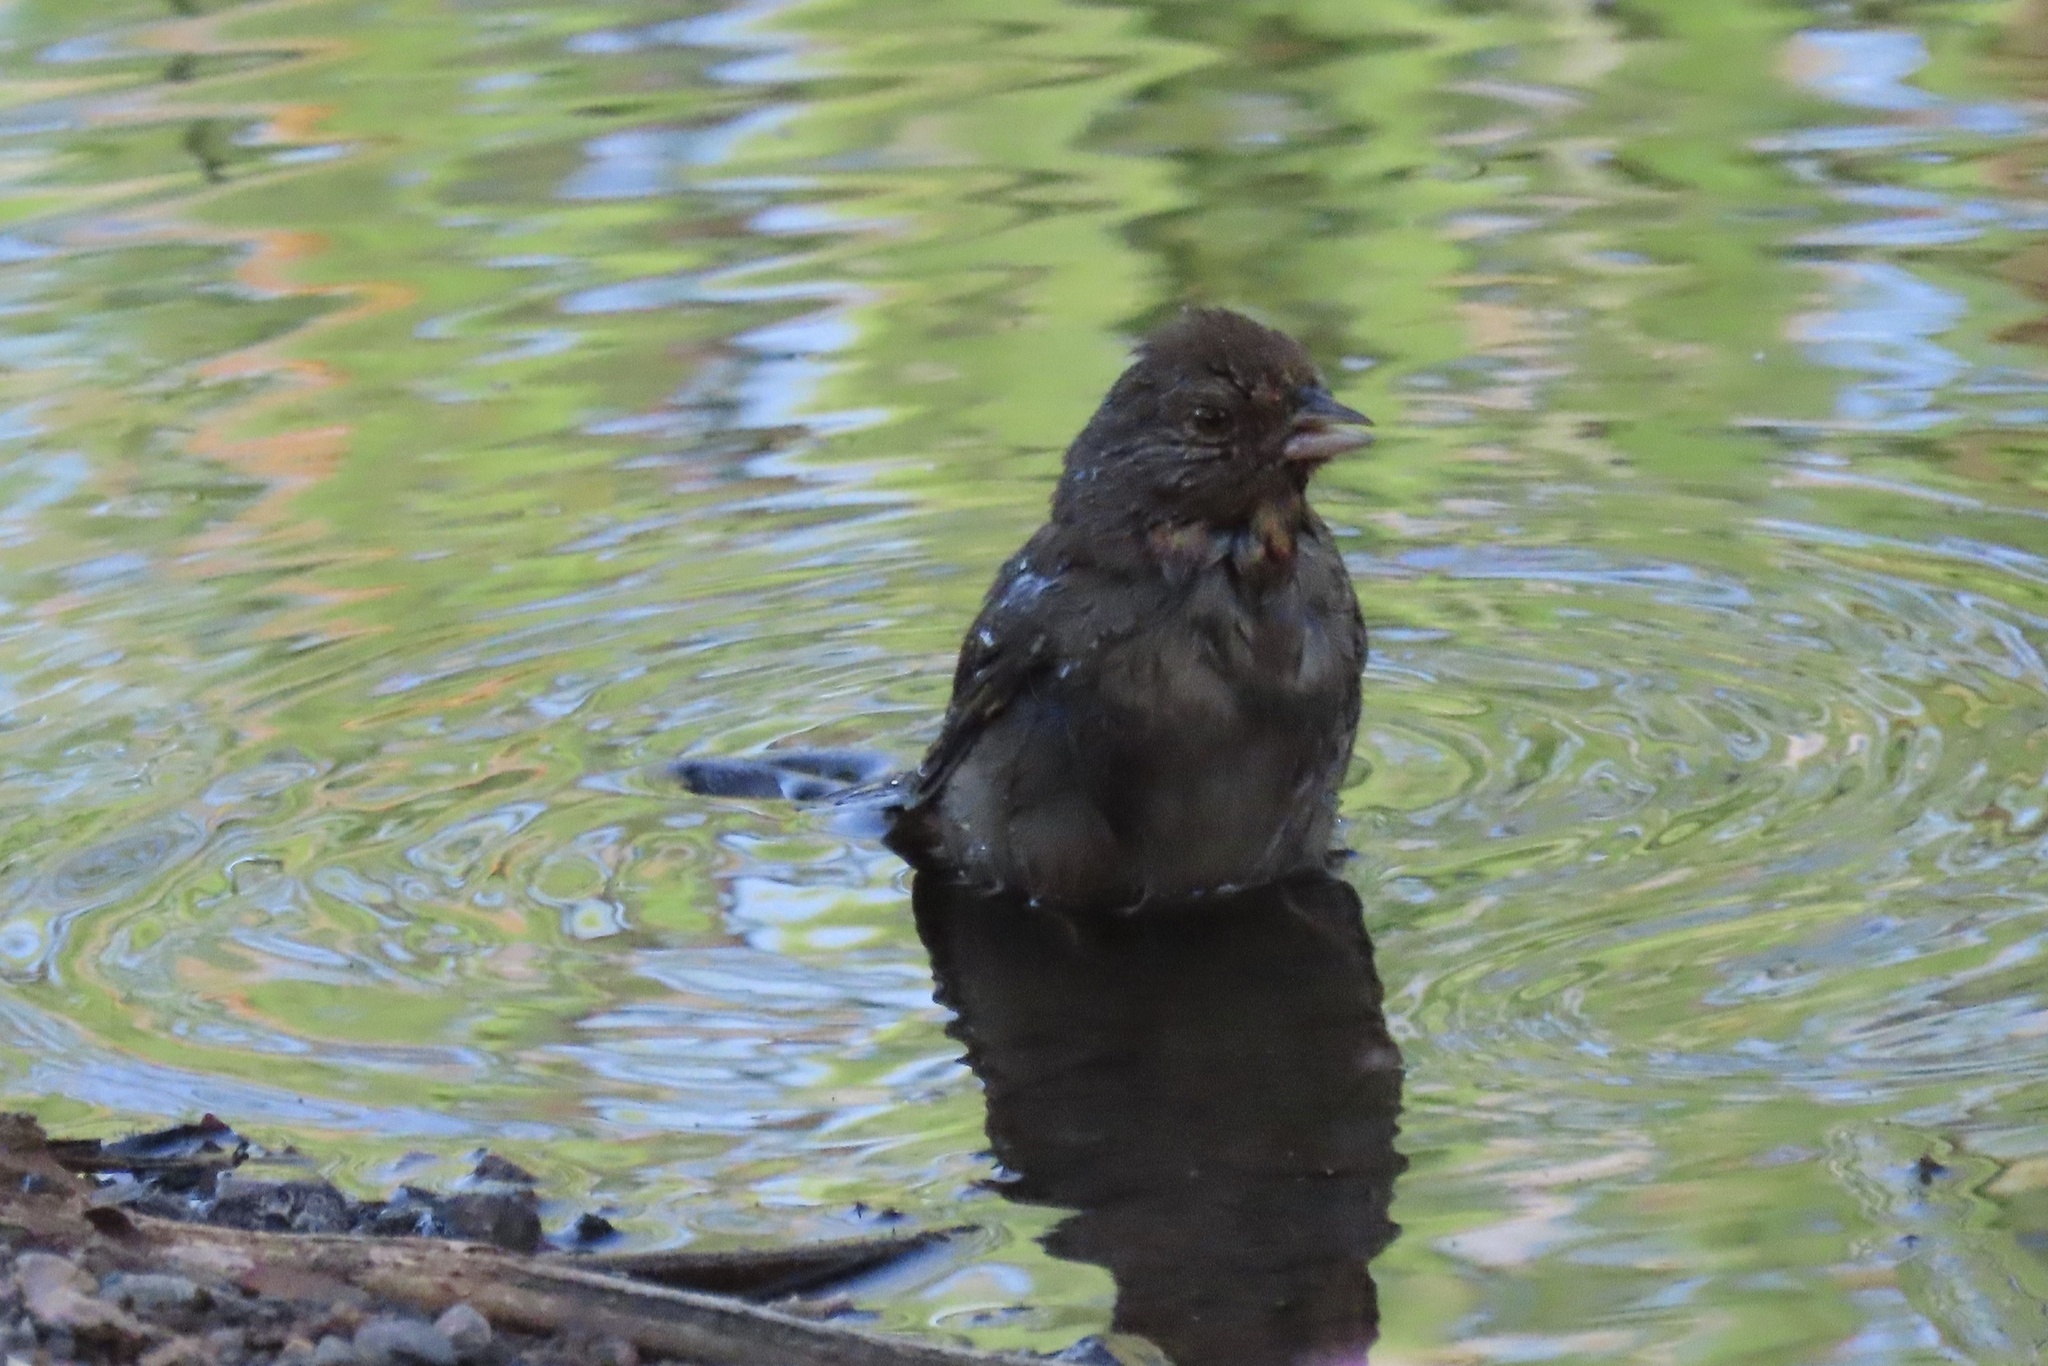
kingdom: Animalia
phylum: Chordata
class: Aves
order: Passeriformes
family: Passerellidae
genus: Melozone
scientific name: Melozone crissalis
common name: California towhee
